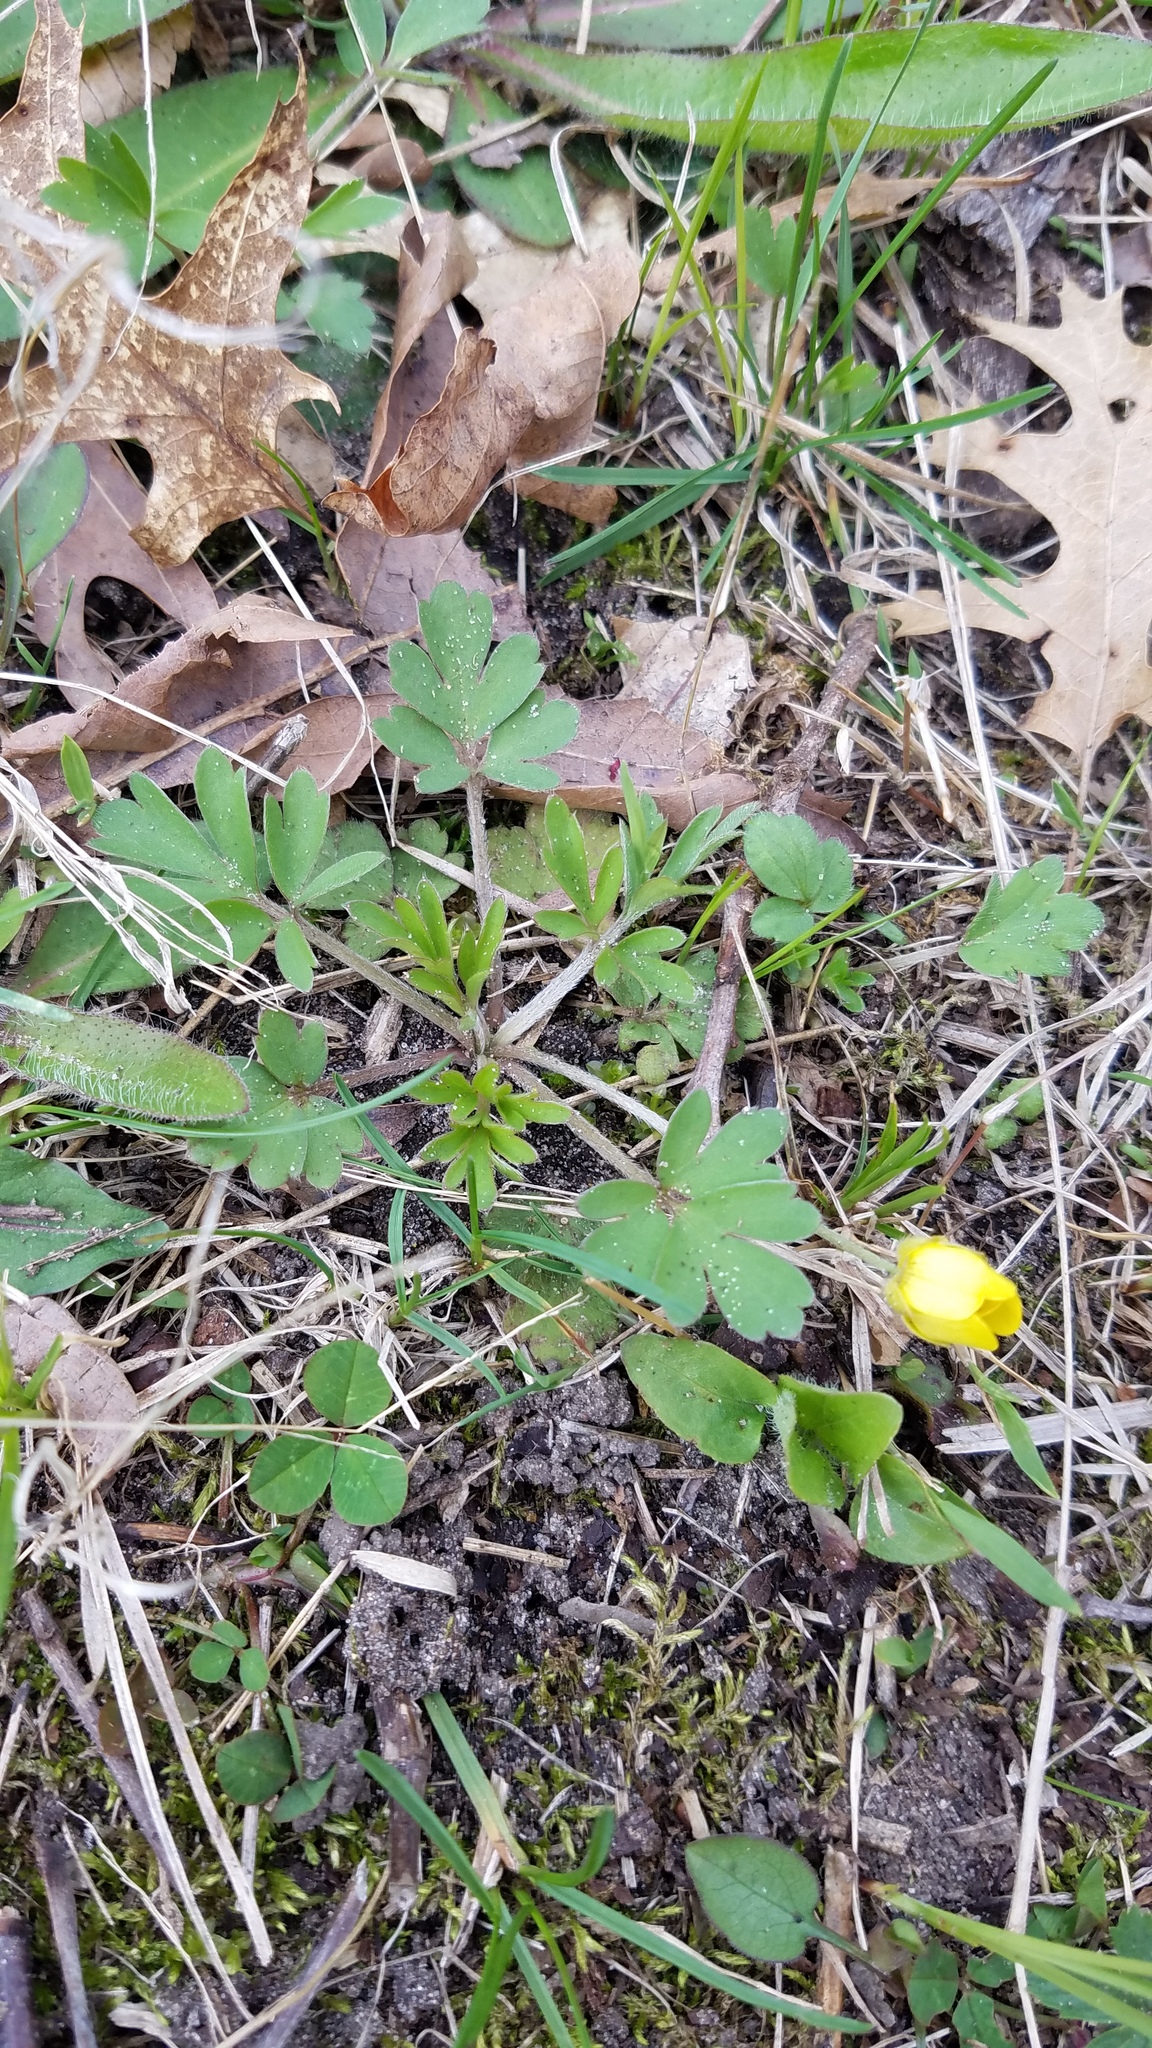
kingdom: Plantae
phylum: Tracheophyta
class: Magnoliopsida
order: Ranunculales
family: Ranunculaceae
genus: Ranunculus
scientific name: Ranunculus fascicularis
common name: Early buttercup
